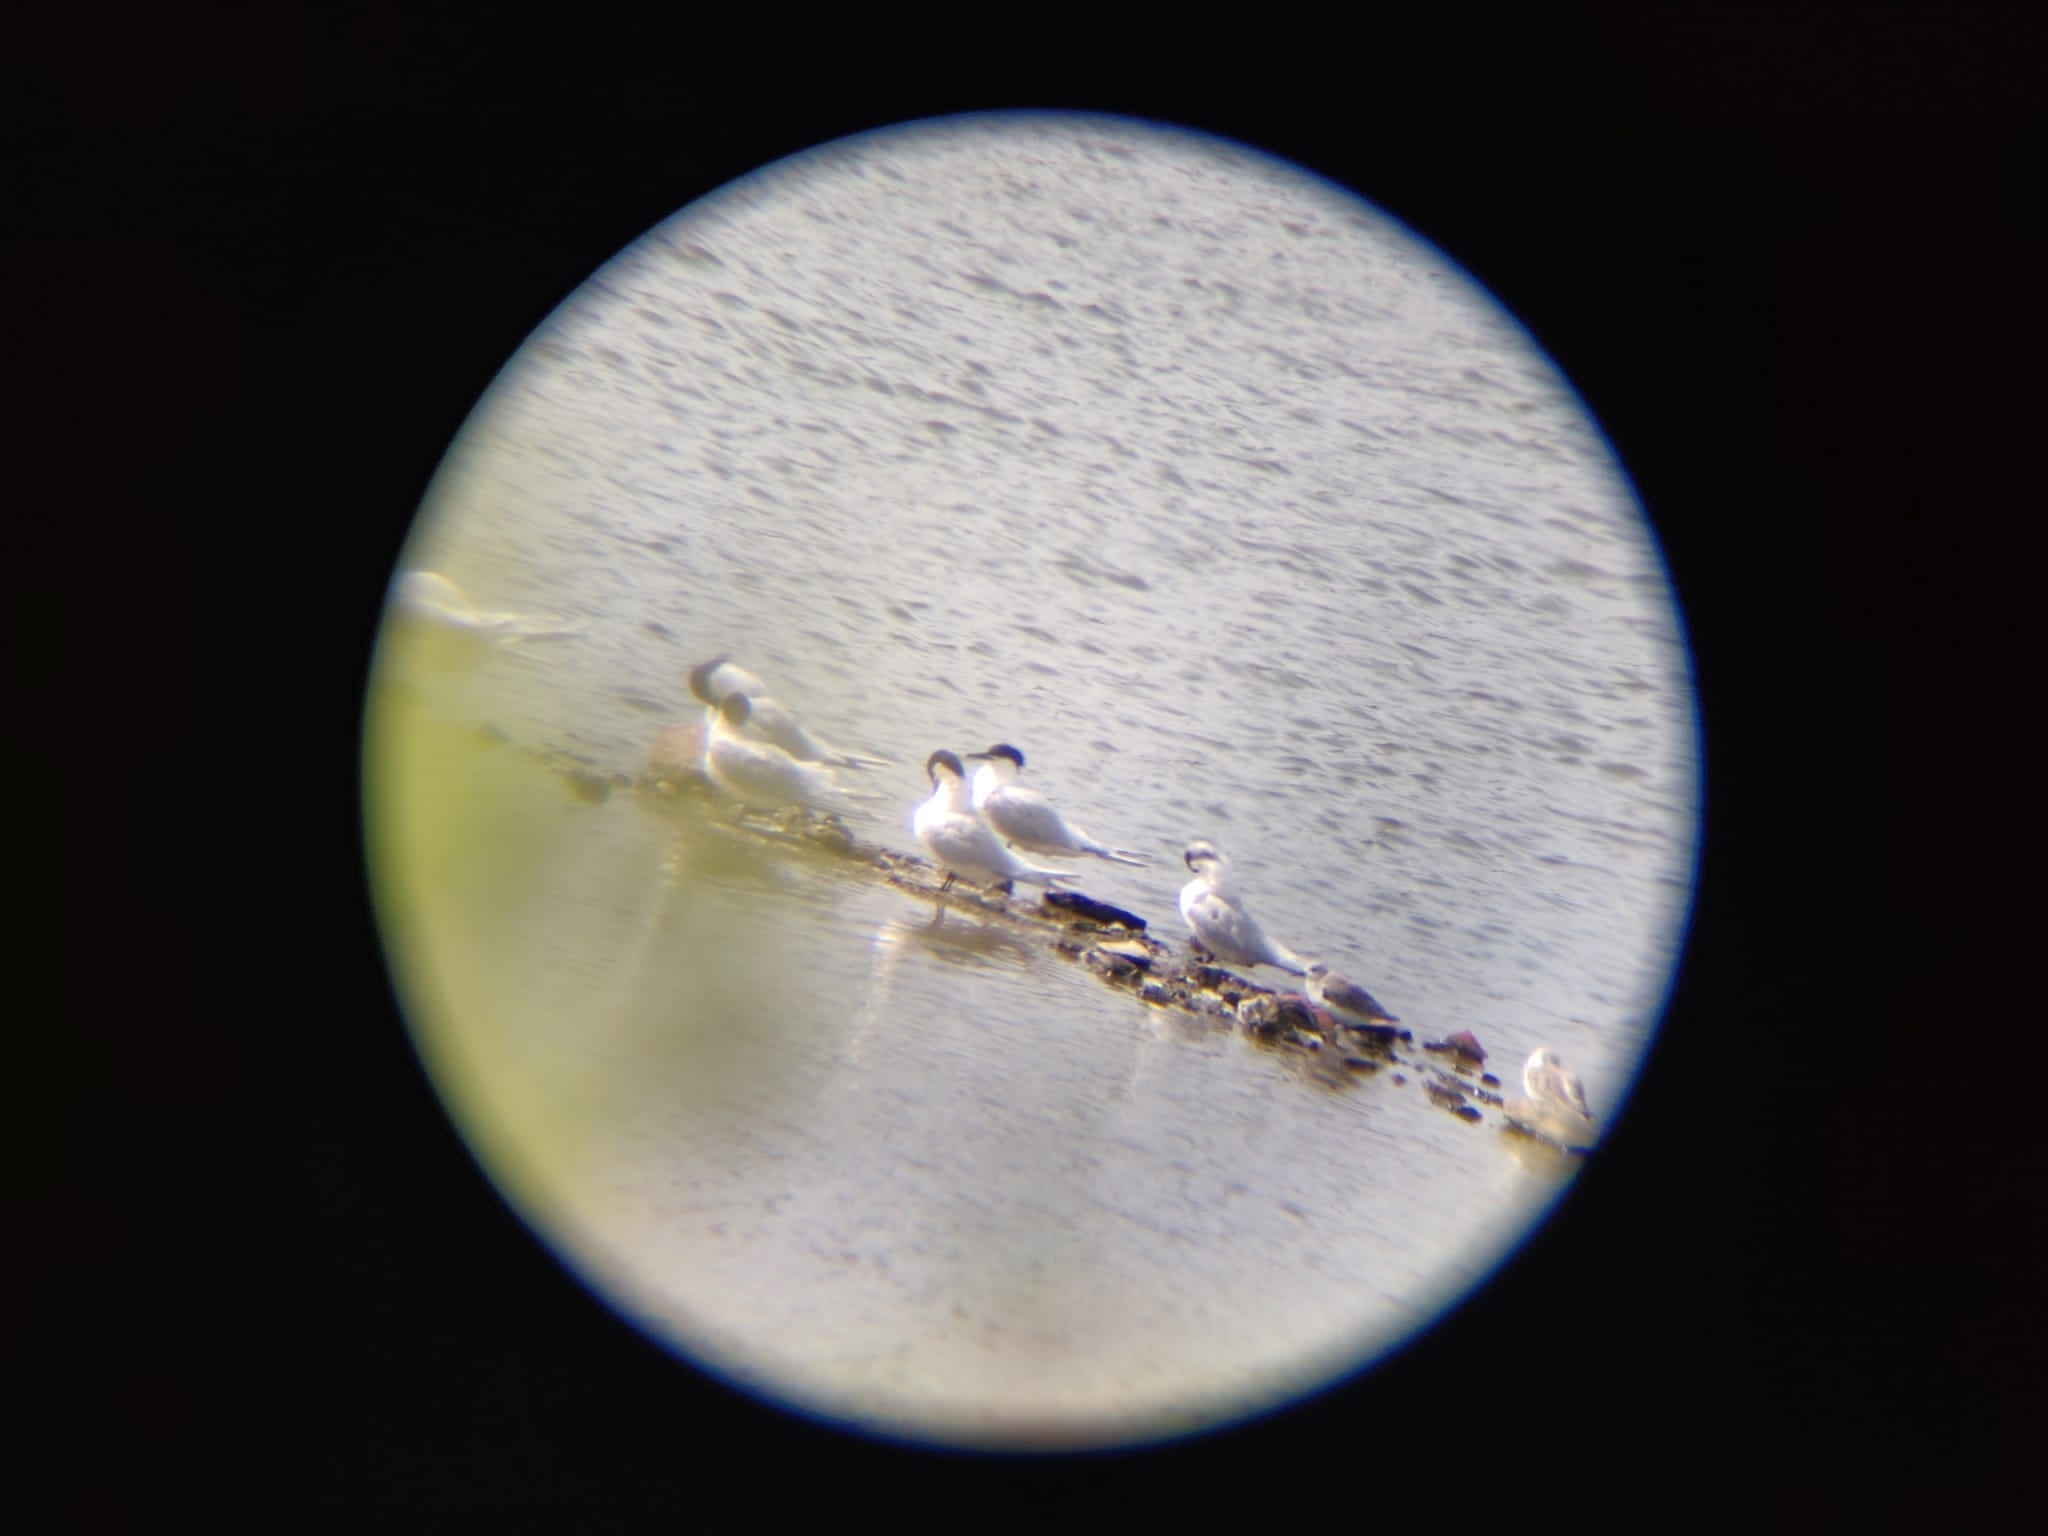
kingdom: Animalia
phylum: Chordata
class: Aves
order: Charadriiformes
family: Laridae
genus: Thalasseus
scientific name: Thalasseus sandvicensis
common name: Sandwich tern
